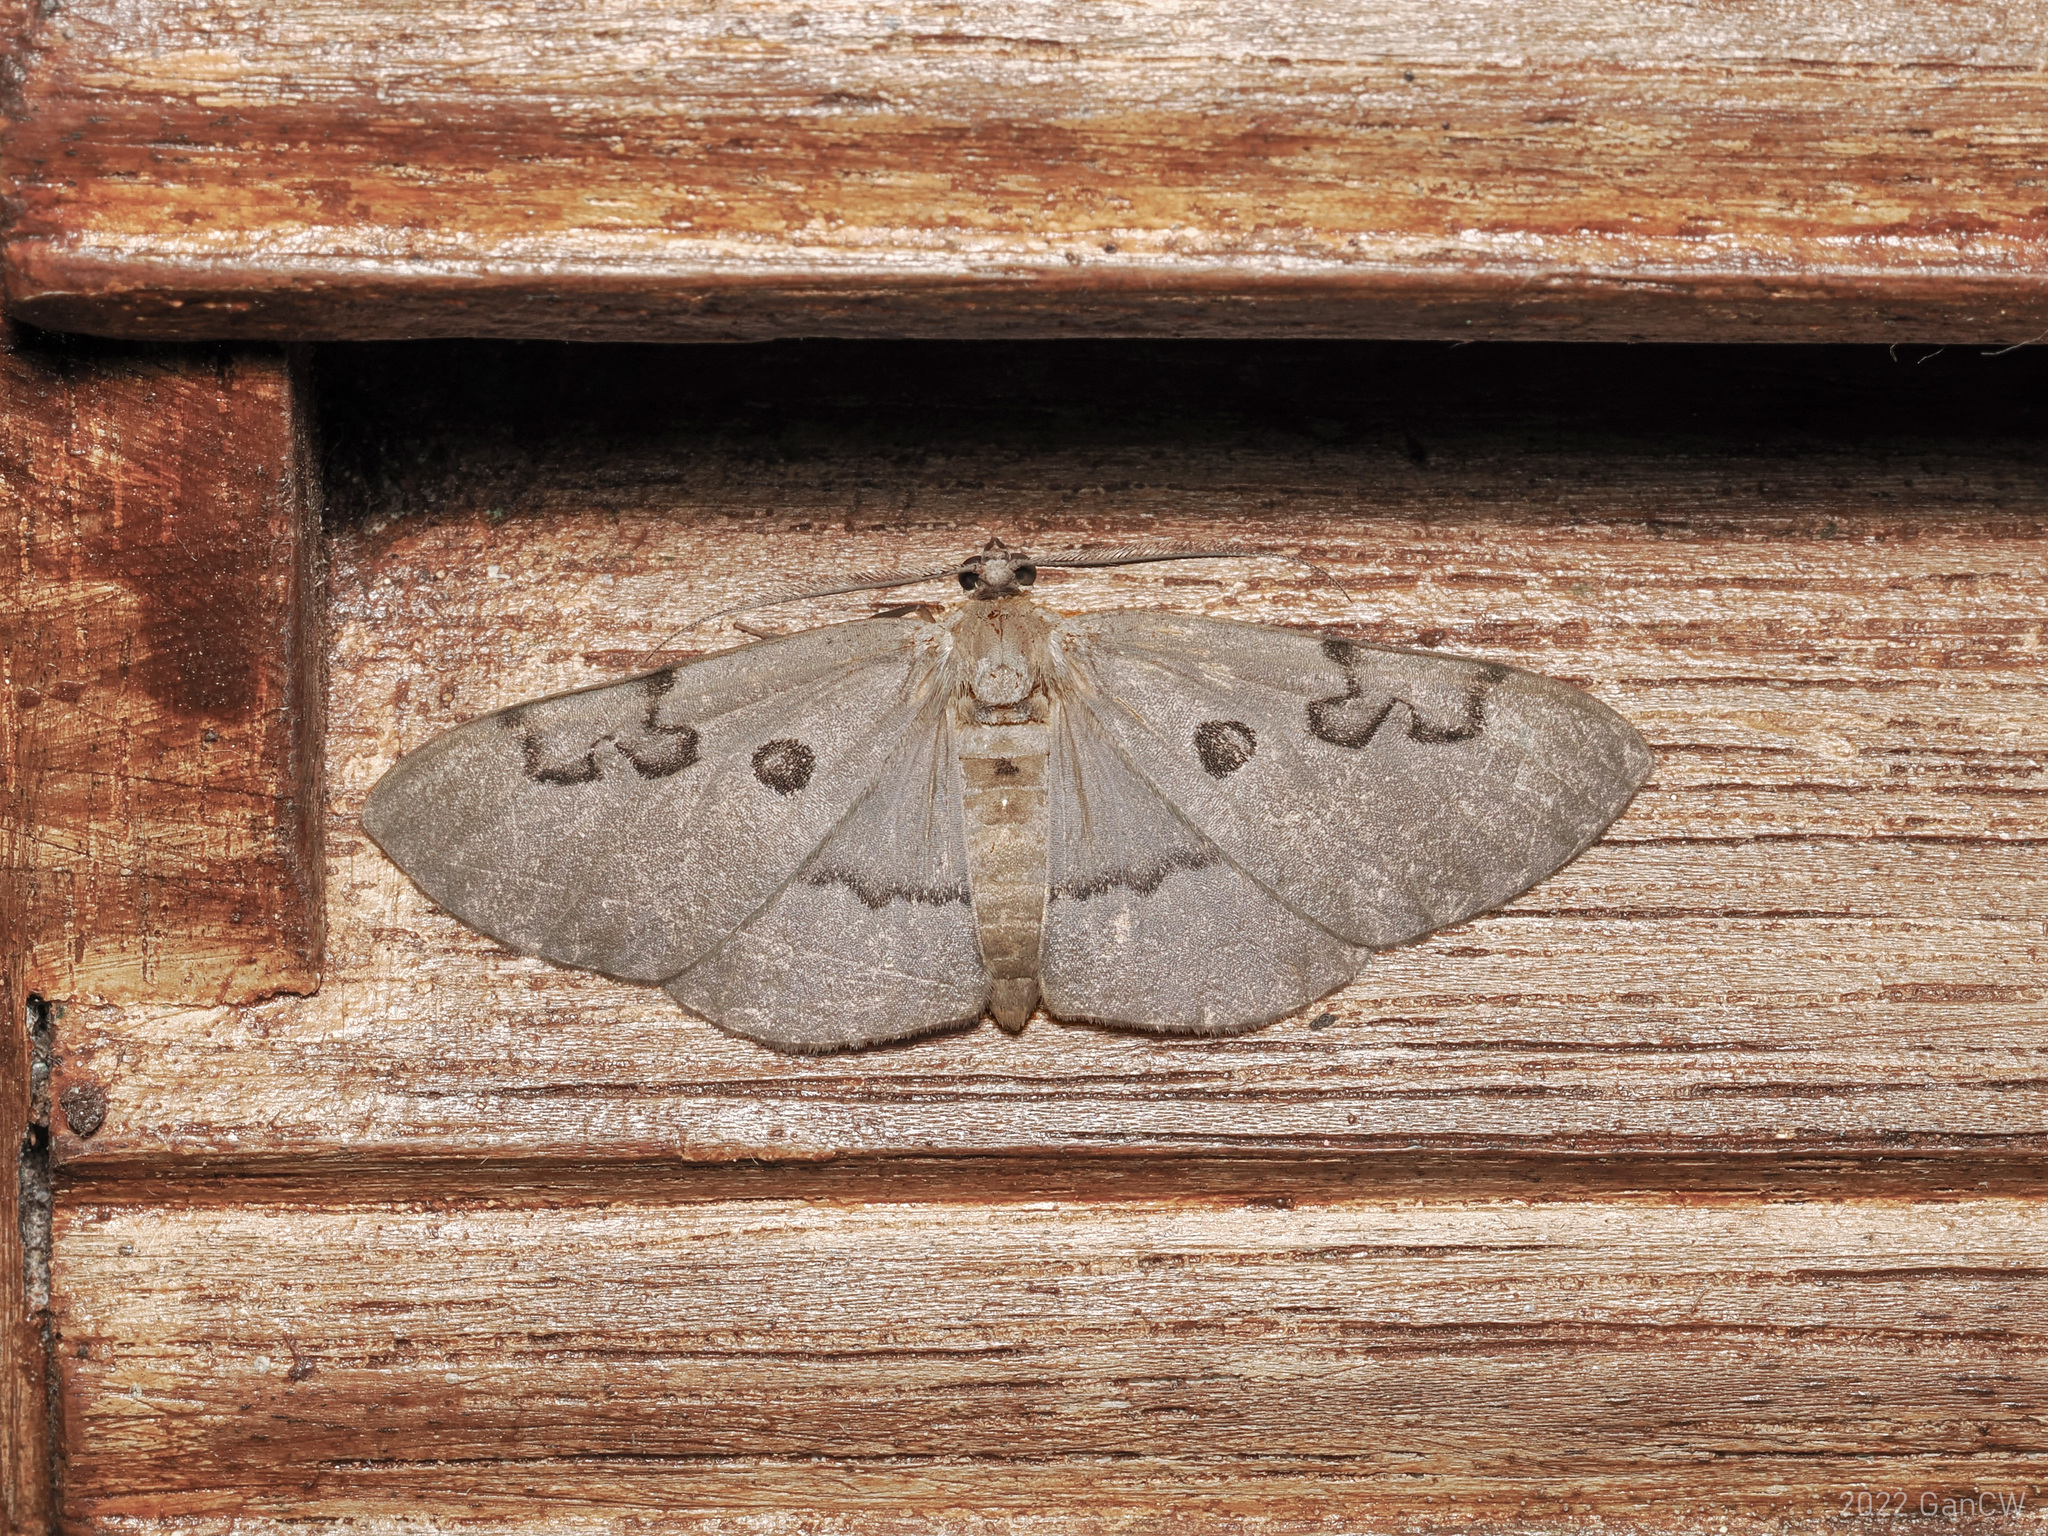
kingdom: Animalia
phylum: Arthropoda
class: Insecta
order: Lepidoptera
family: Geometridae
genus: Hypochrosis
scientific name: Hypochrosis sternaria
